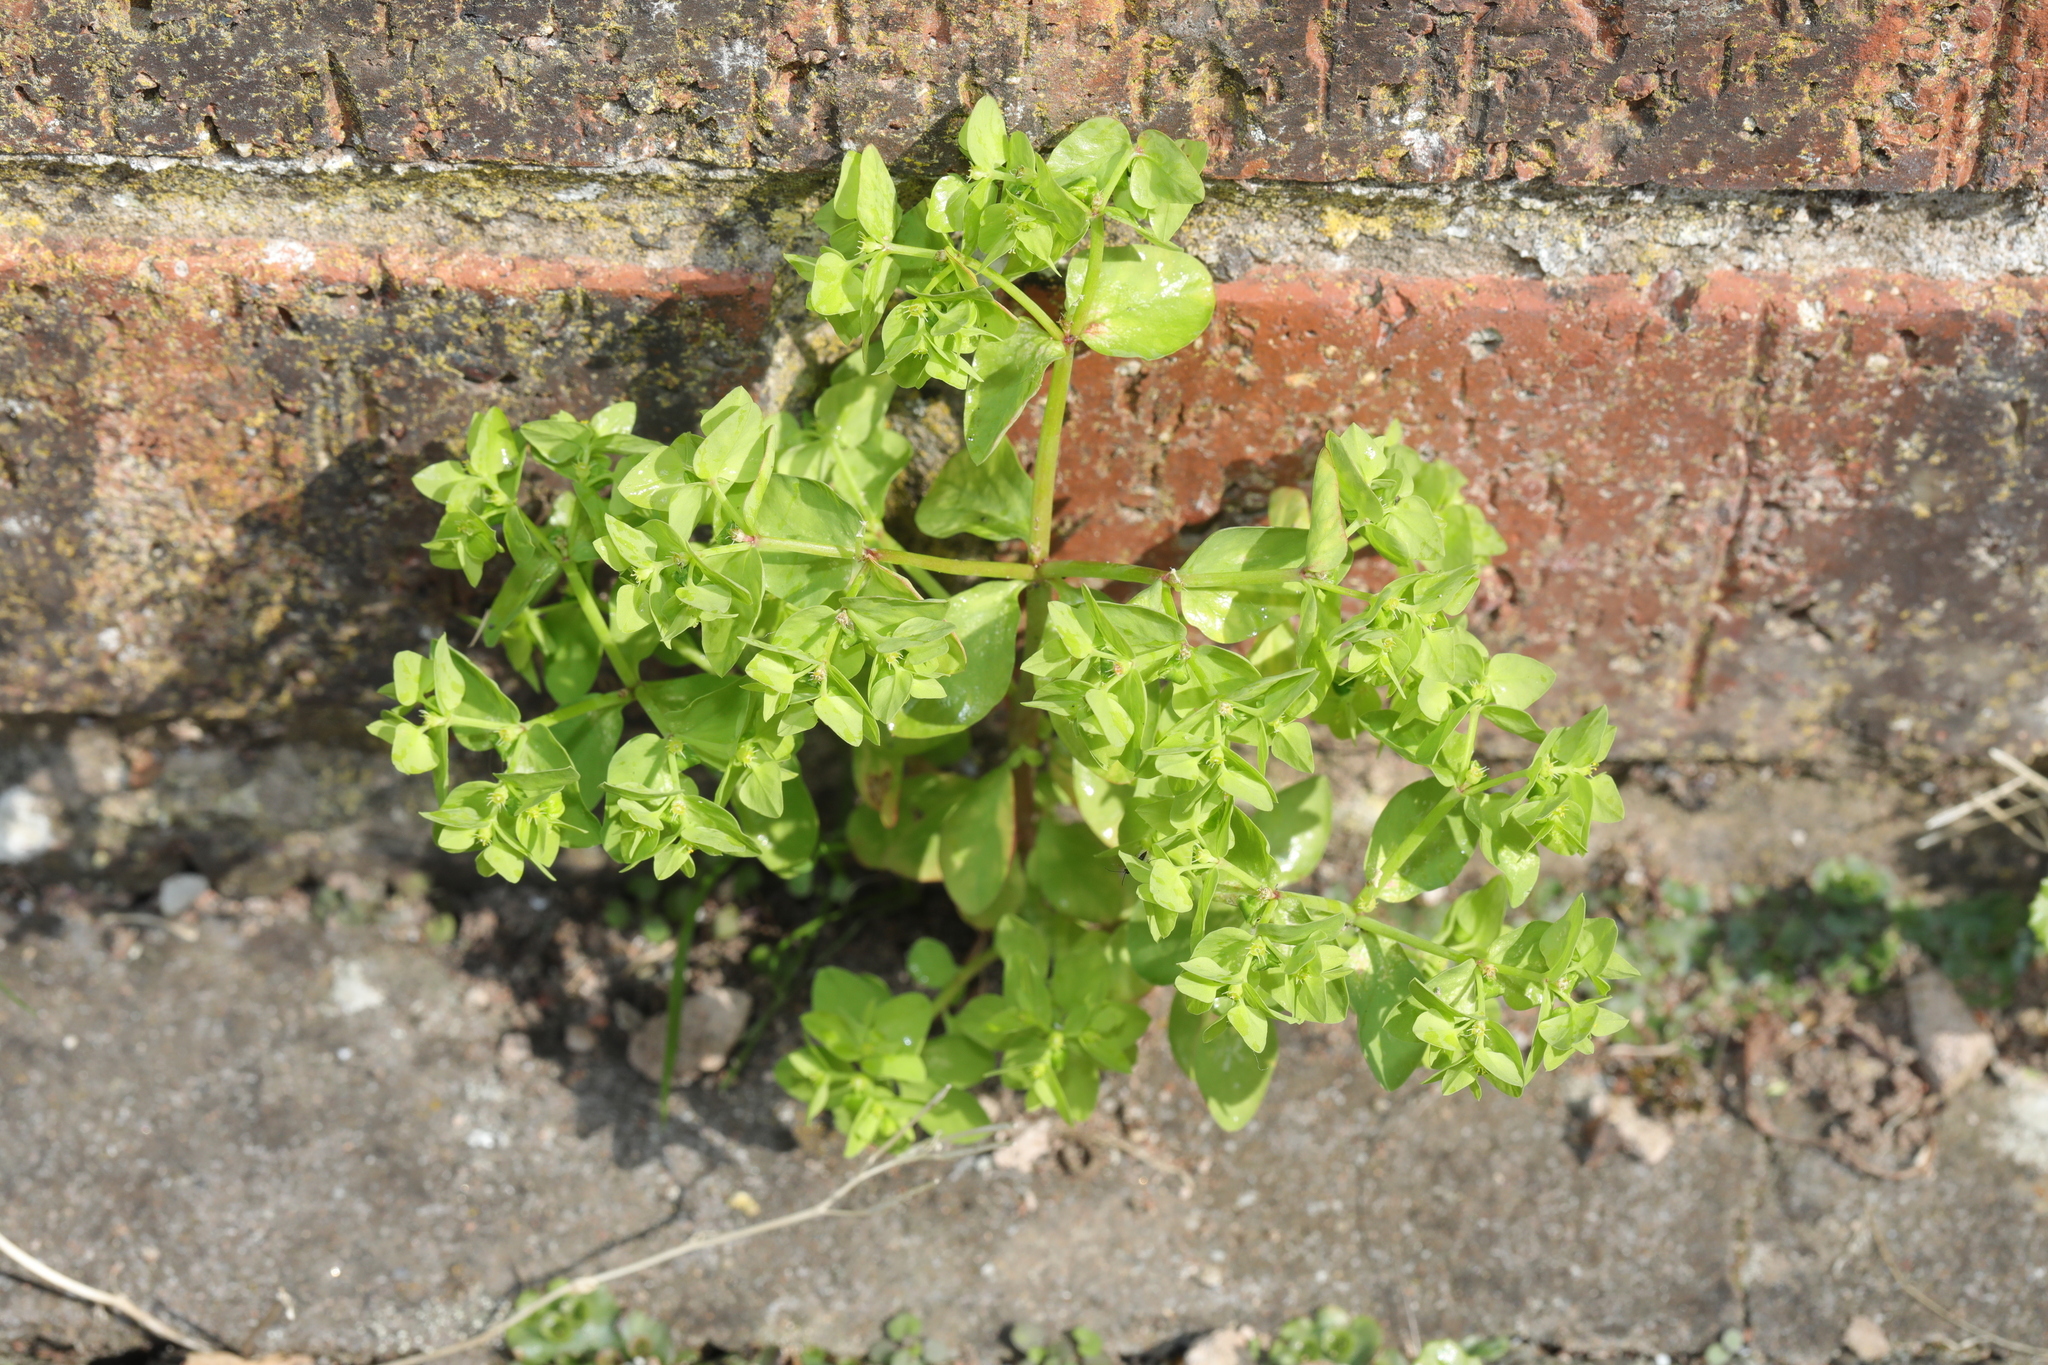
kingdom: Plantae
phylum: Tracheophyta
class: Magnoliopsida
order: Malpighiales
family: Euphorbiaceae
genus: Euphorbia
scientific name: Euphorbia peplus
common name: Petty spurge
